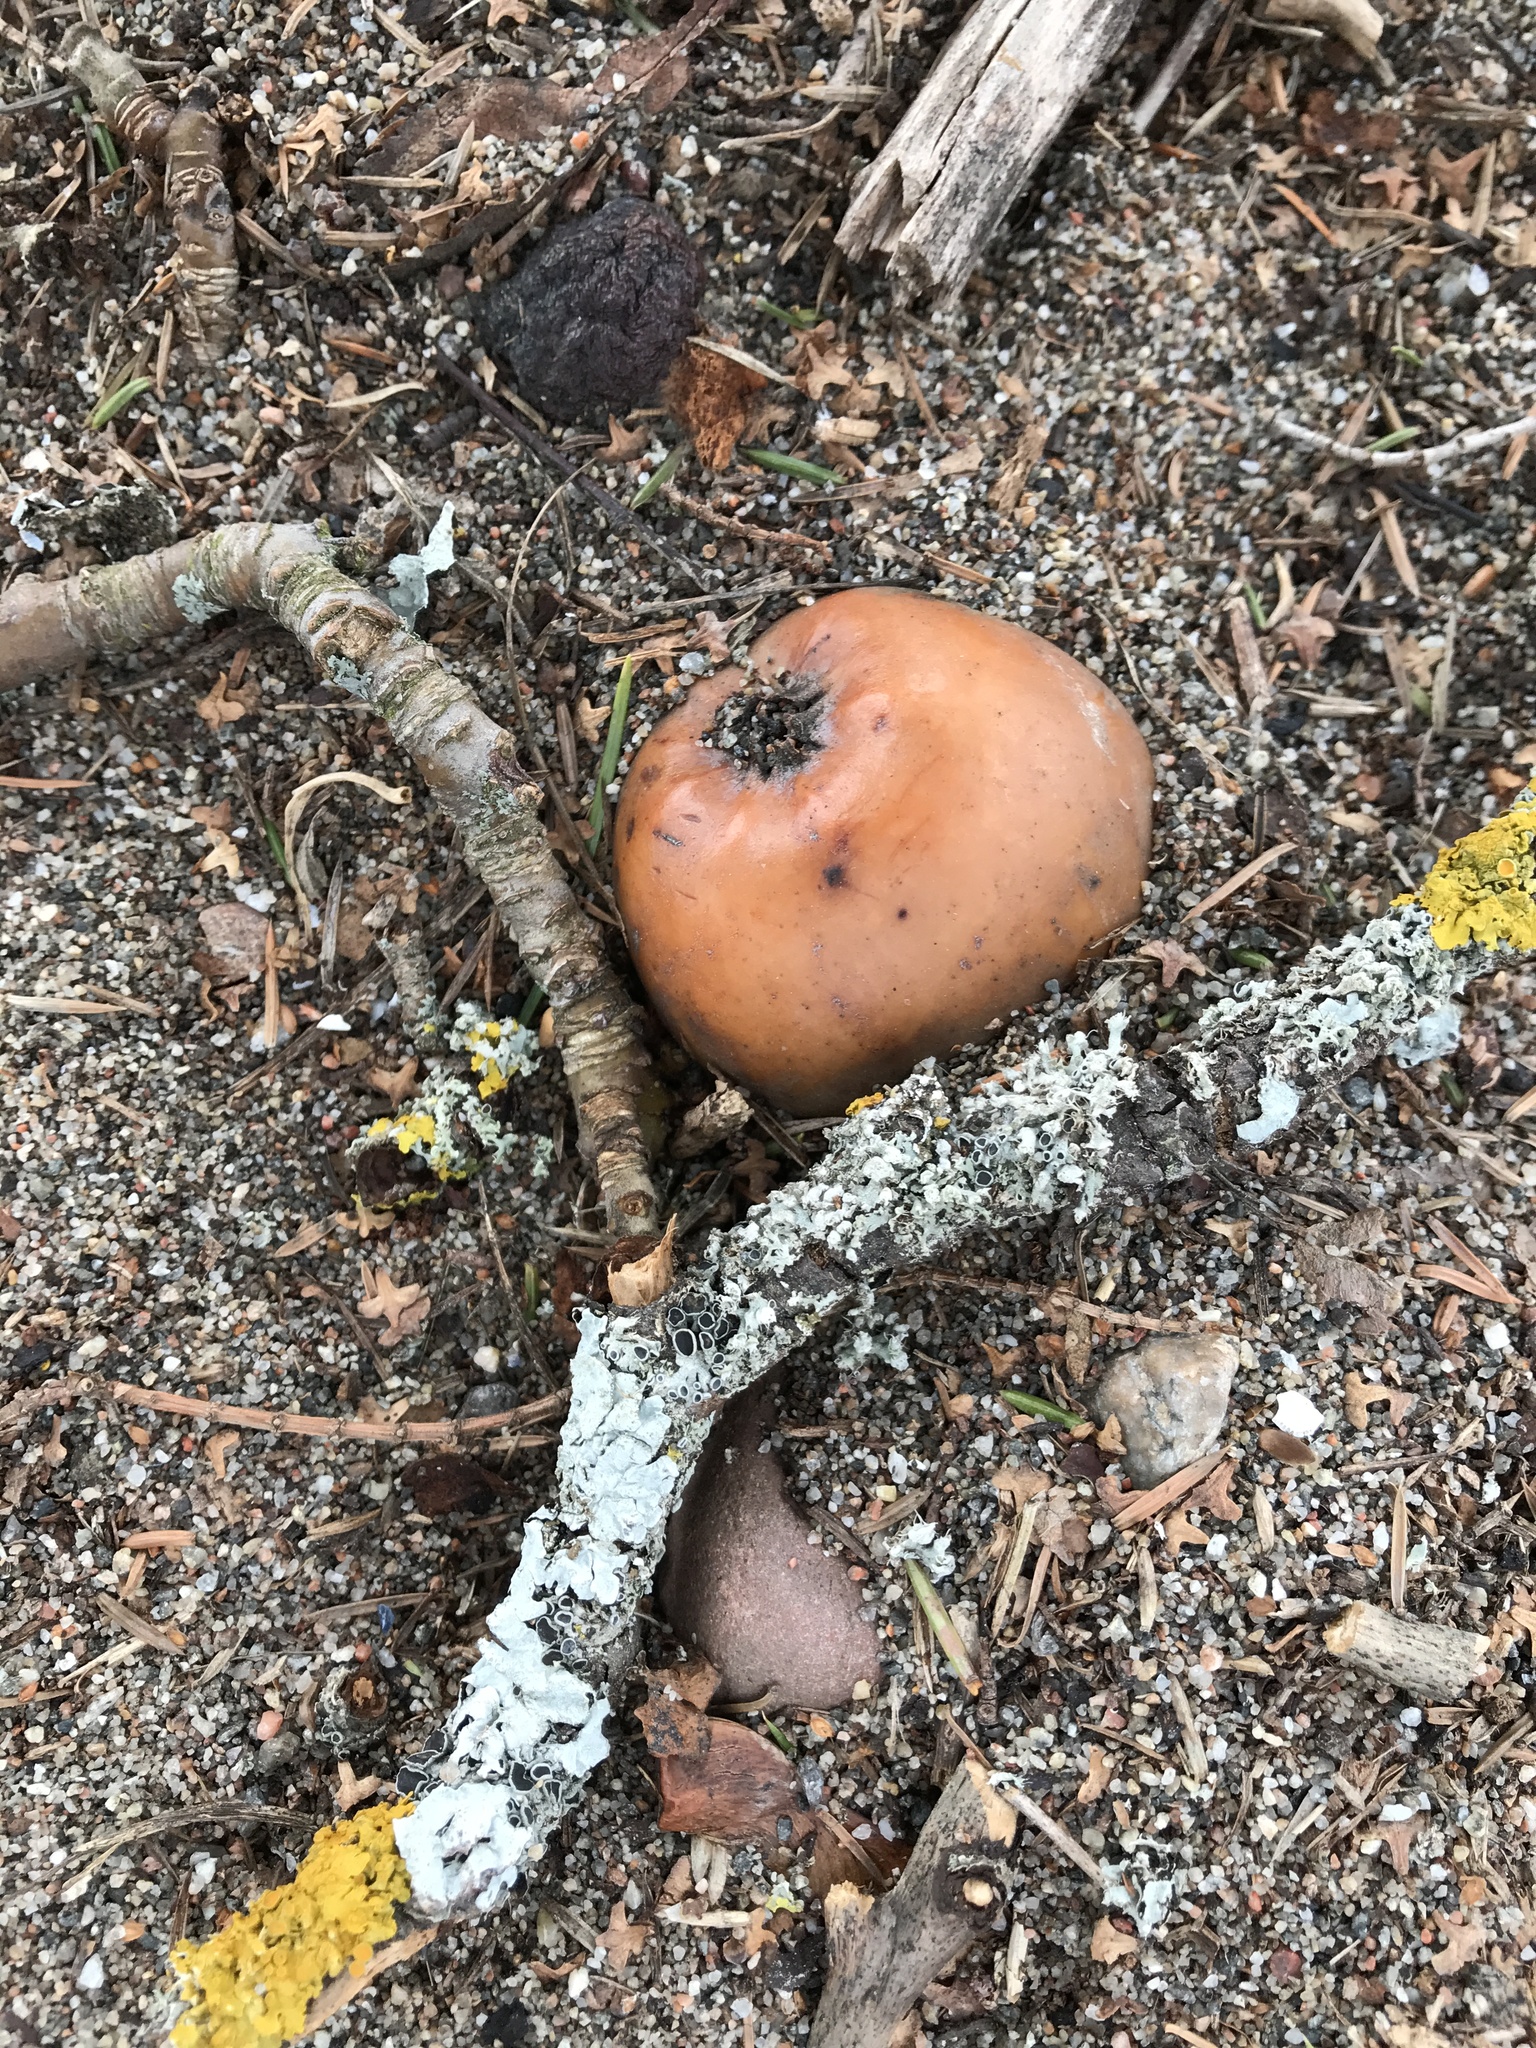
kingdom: Plantae
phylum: Tracheophyta
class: Magnoliopsida
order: Rosales
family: Rosaceae
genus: Malus
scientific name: Malus domestica
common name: Apple
